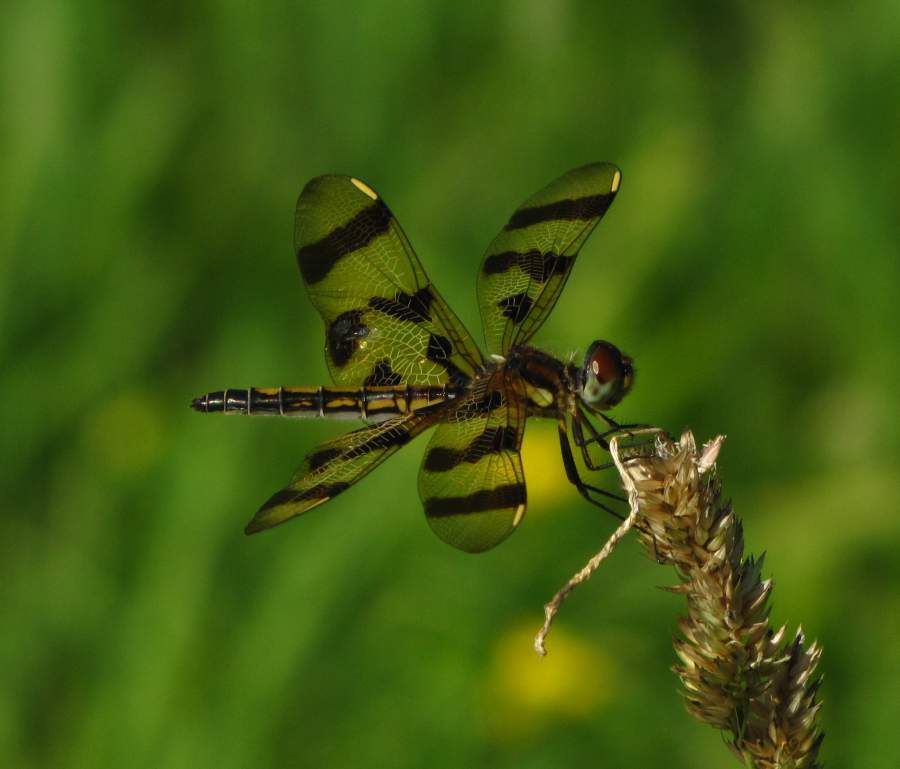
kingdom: Animalia
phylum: Arthropoda
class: Insecta
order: Odonata
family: Libellulidae
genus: Celithemis
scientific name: Celithemis eponina
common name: Halloween pennant
